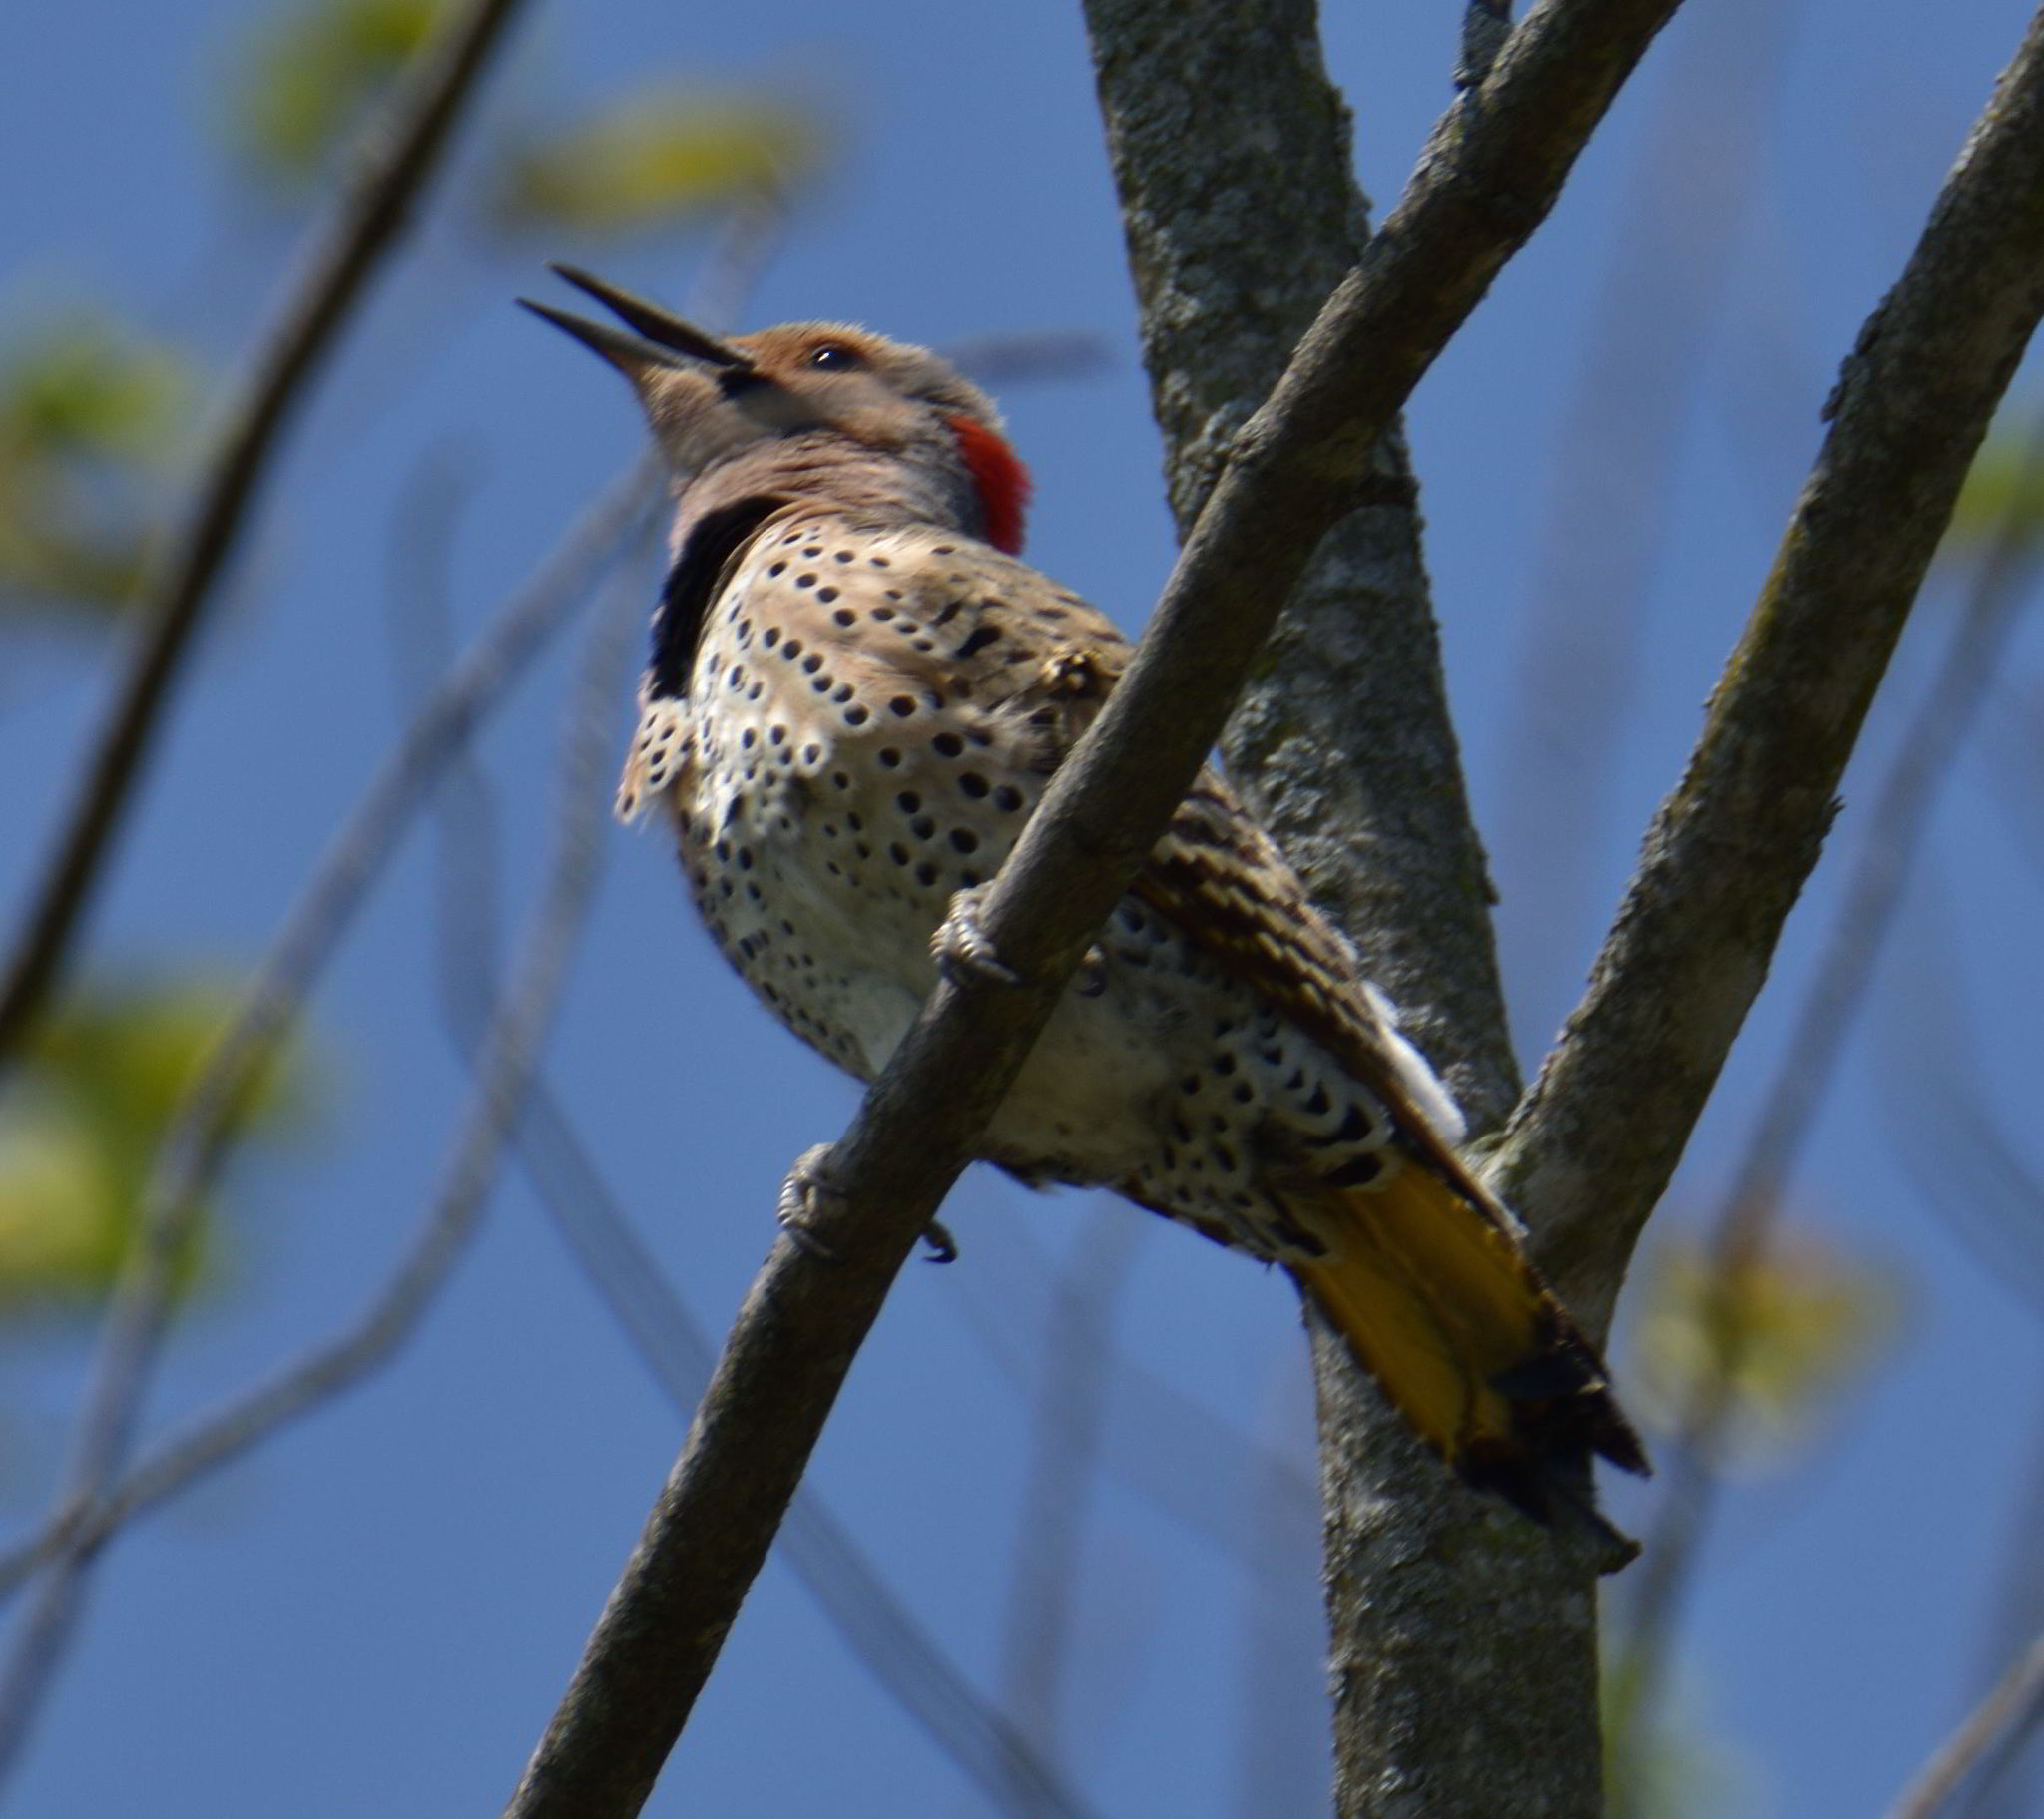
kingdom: Animalia
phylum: Chordata
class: Aves
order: Piciformes
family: Picidae
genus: Colaptes
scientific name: Colaptes auratus
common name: Northern flicker
